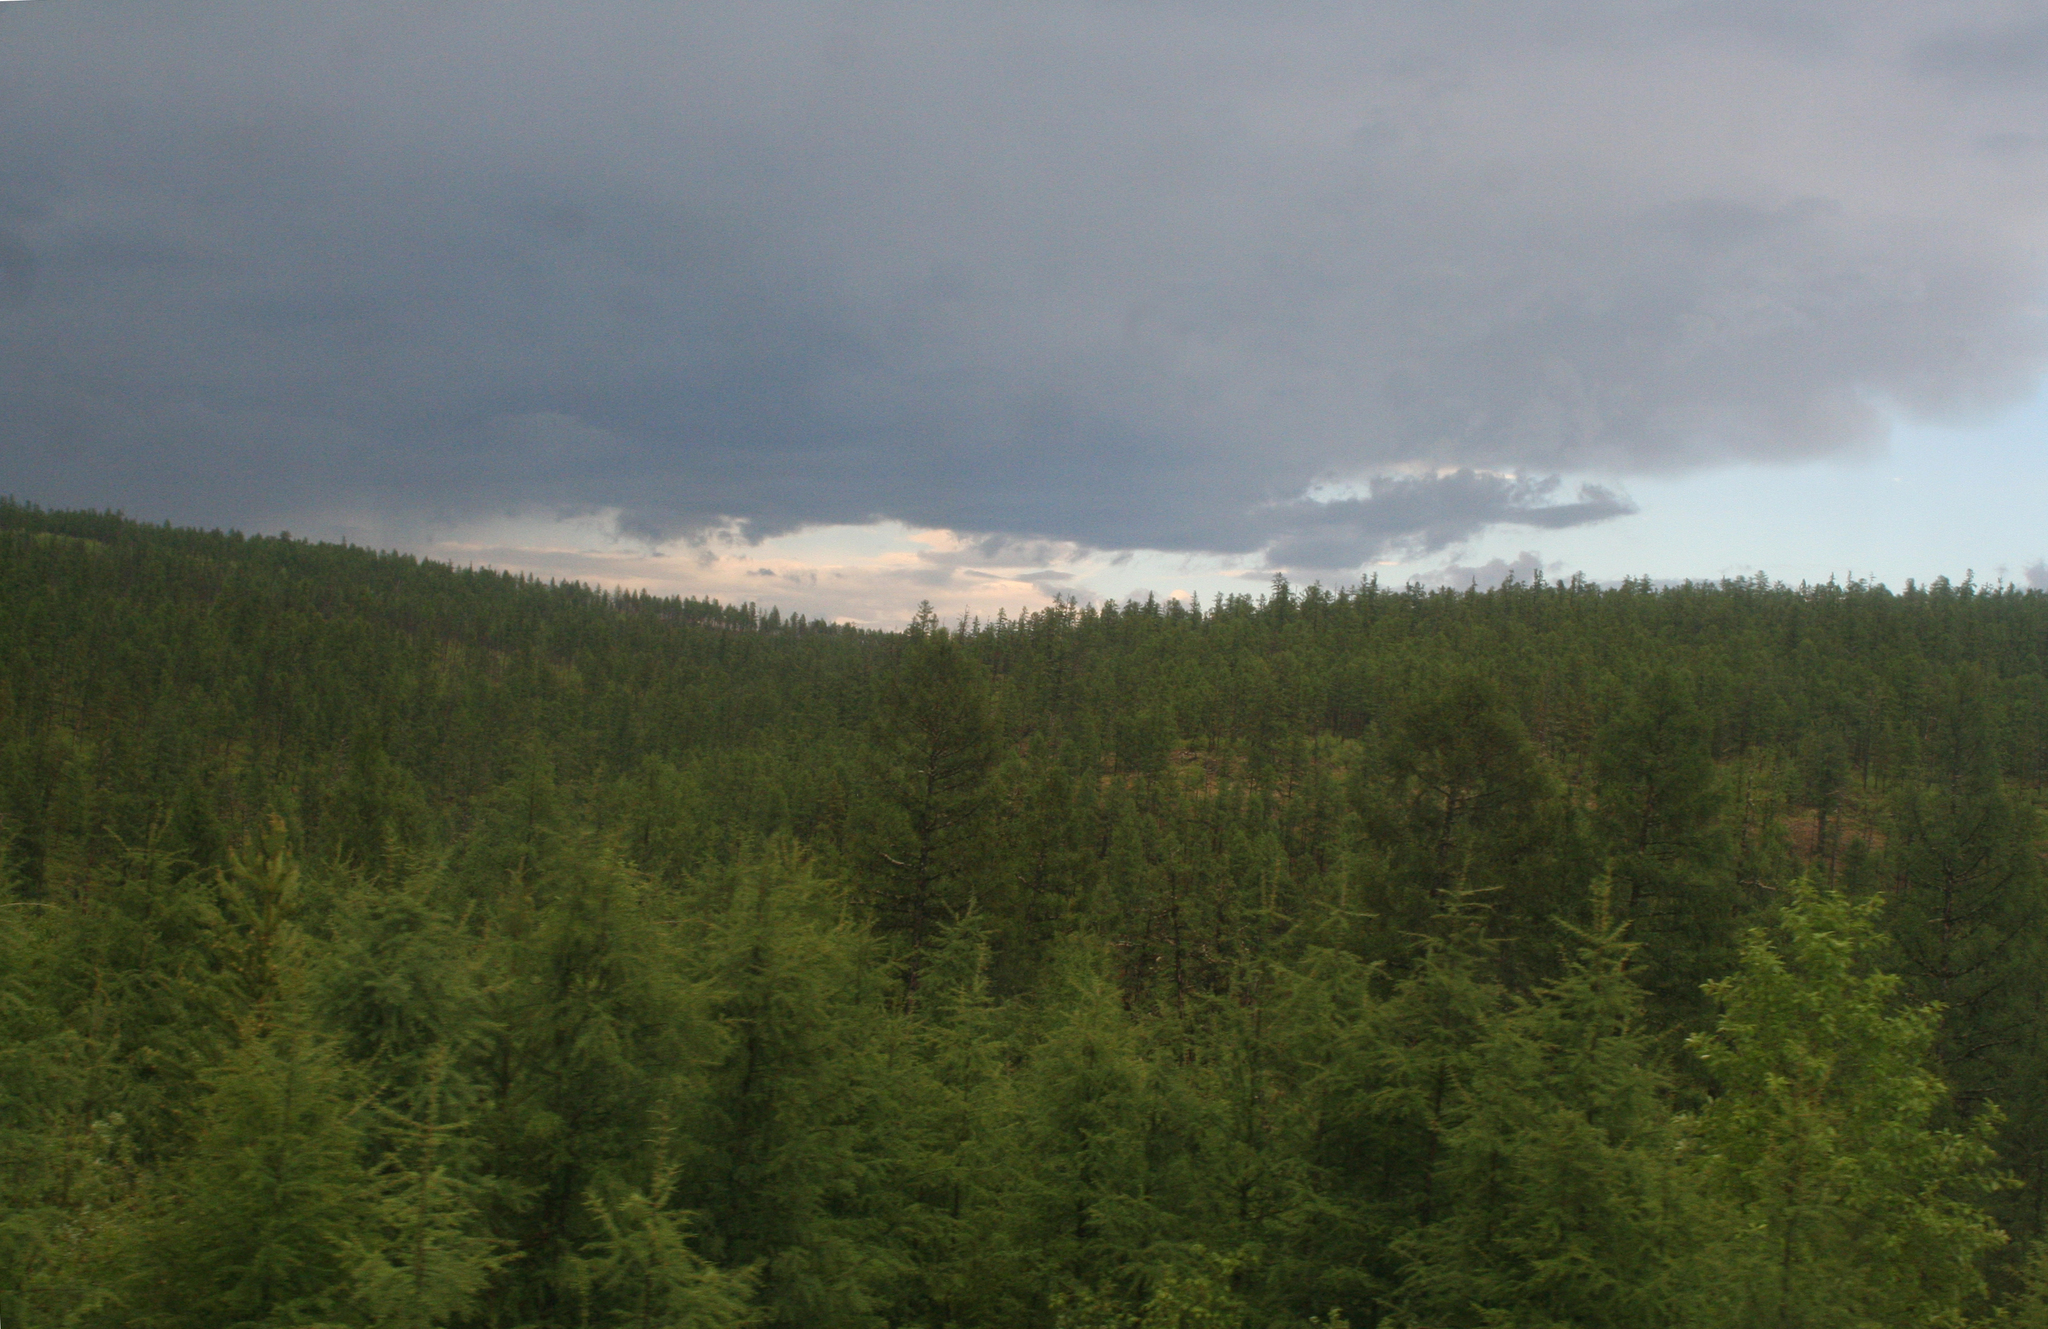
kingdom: Plantae
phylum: Tracheophyta
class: Pinopsida
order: Pinales
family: Pinaceae
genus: Larix
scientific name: Larix gmelinii
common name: Dahurian larch
